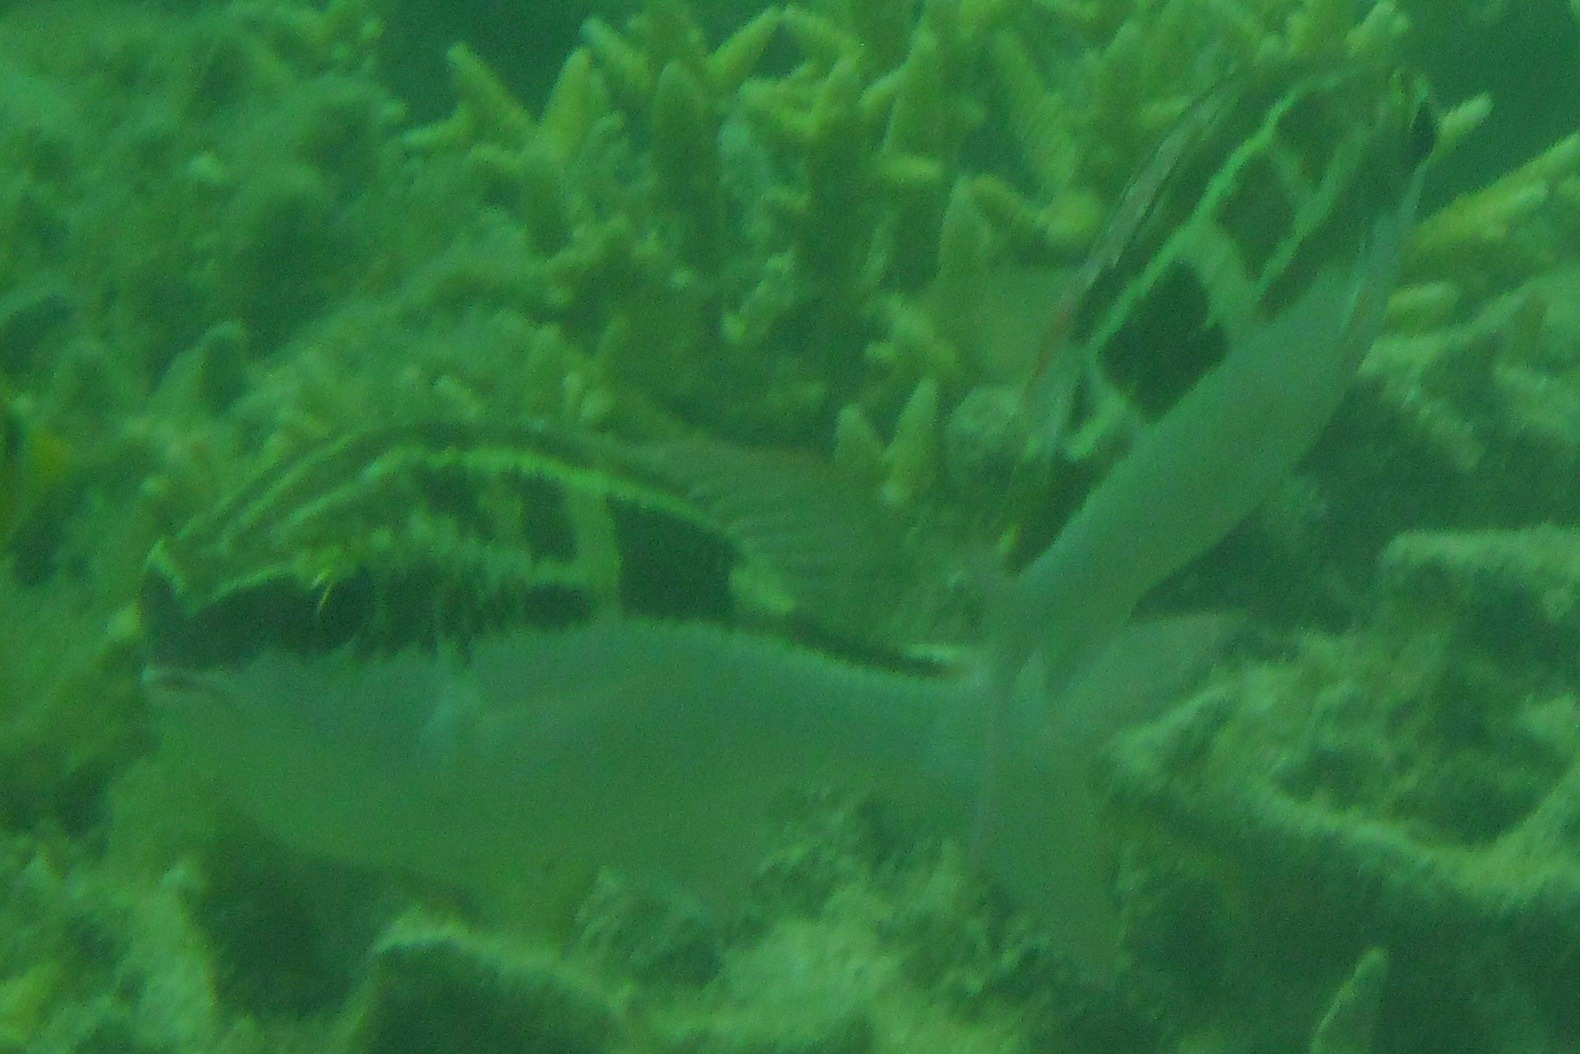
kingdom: Animalia
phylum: Chordata
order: Perciformes
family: Nemipteridae
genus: Scolopsis
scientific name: Scolopsis lineata
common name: Striped monocle bream
